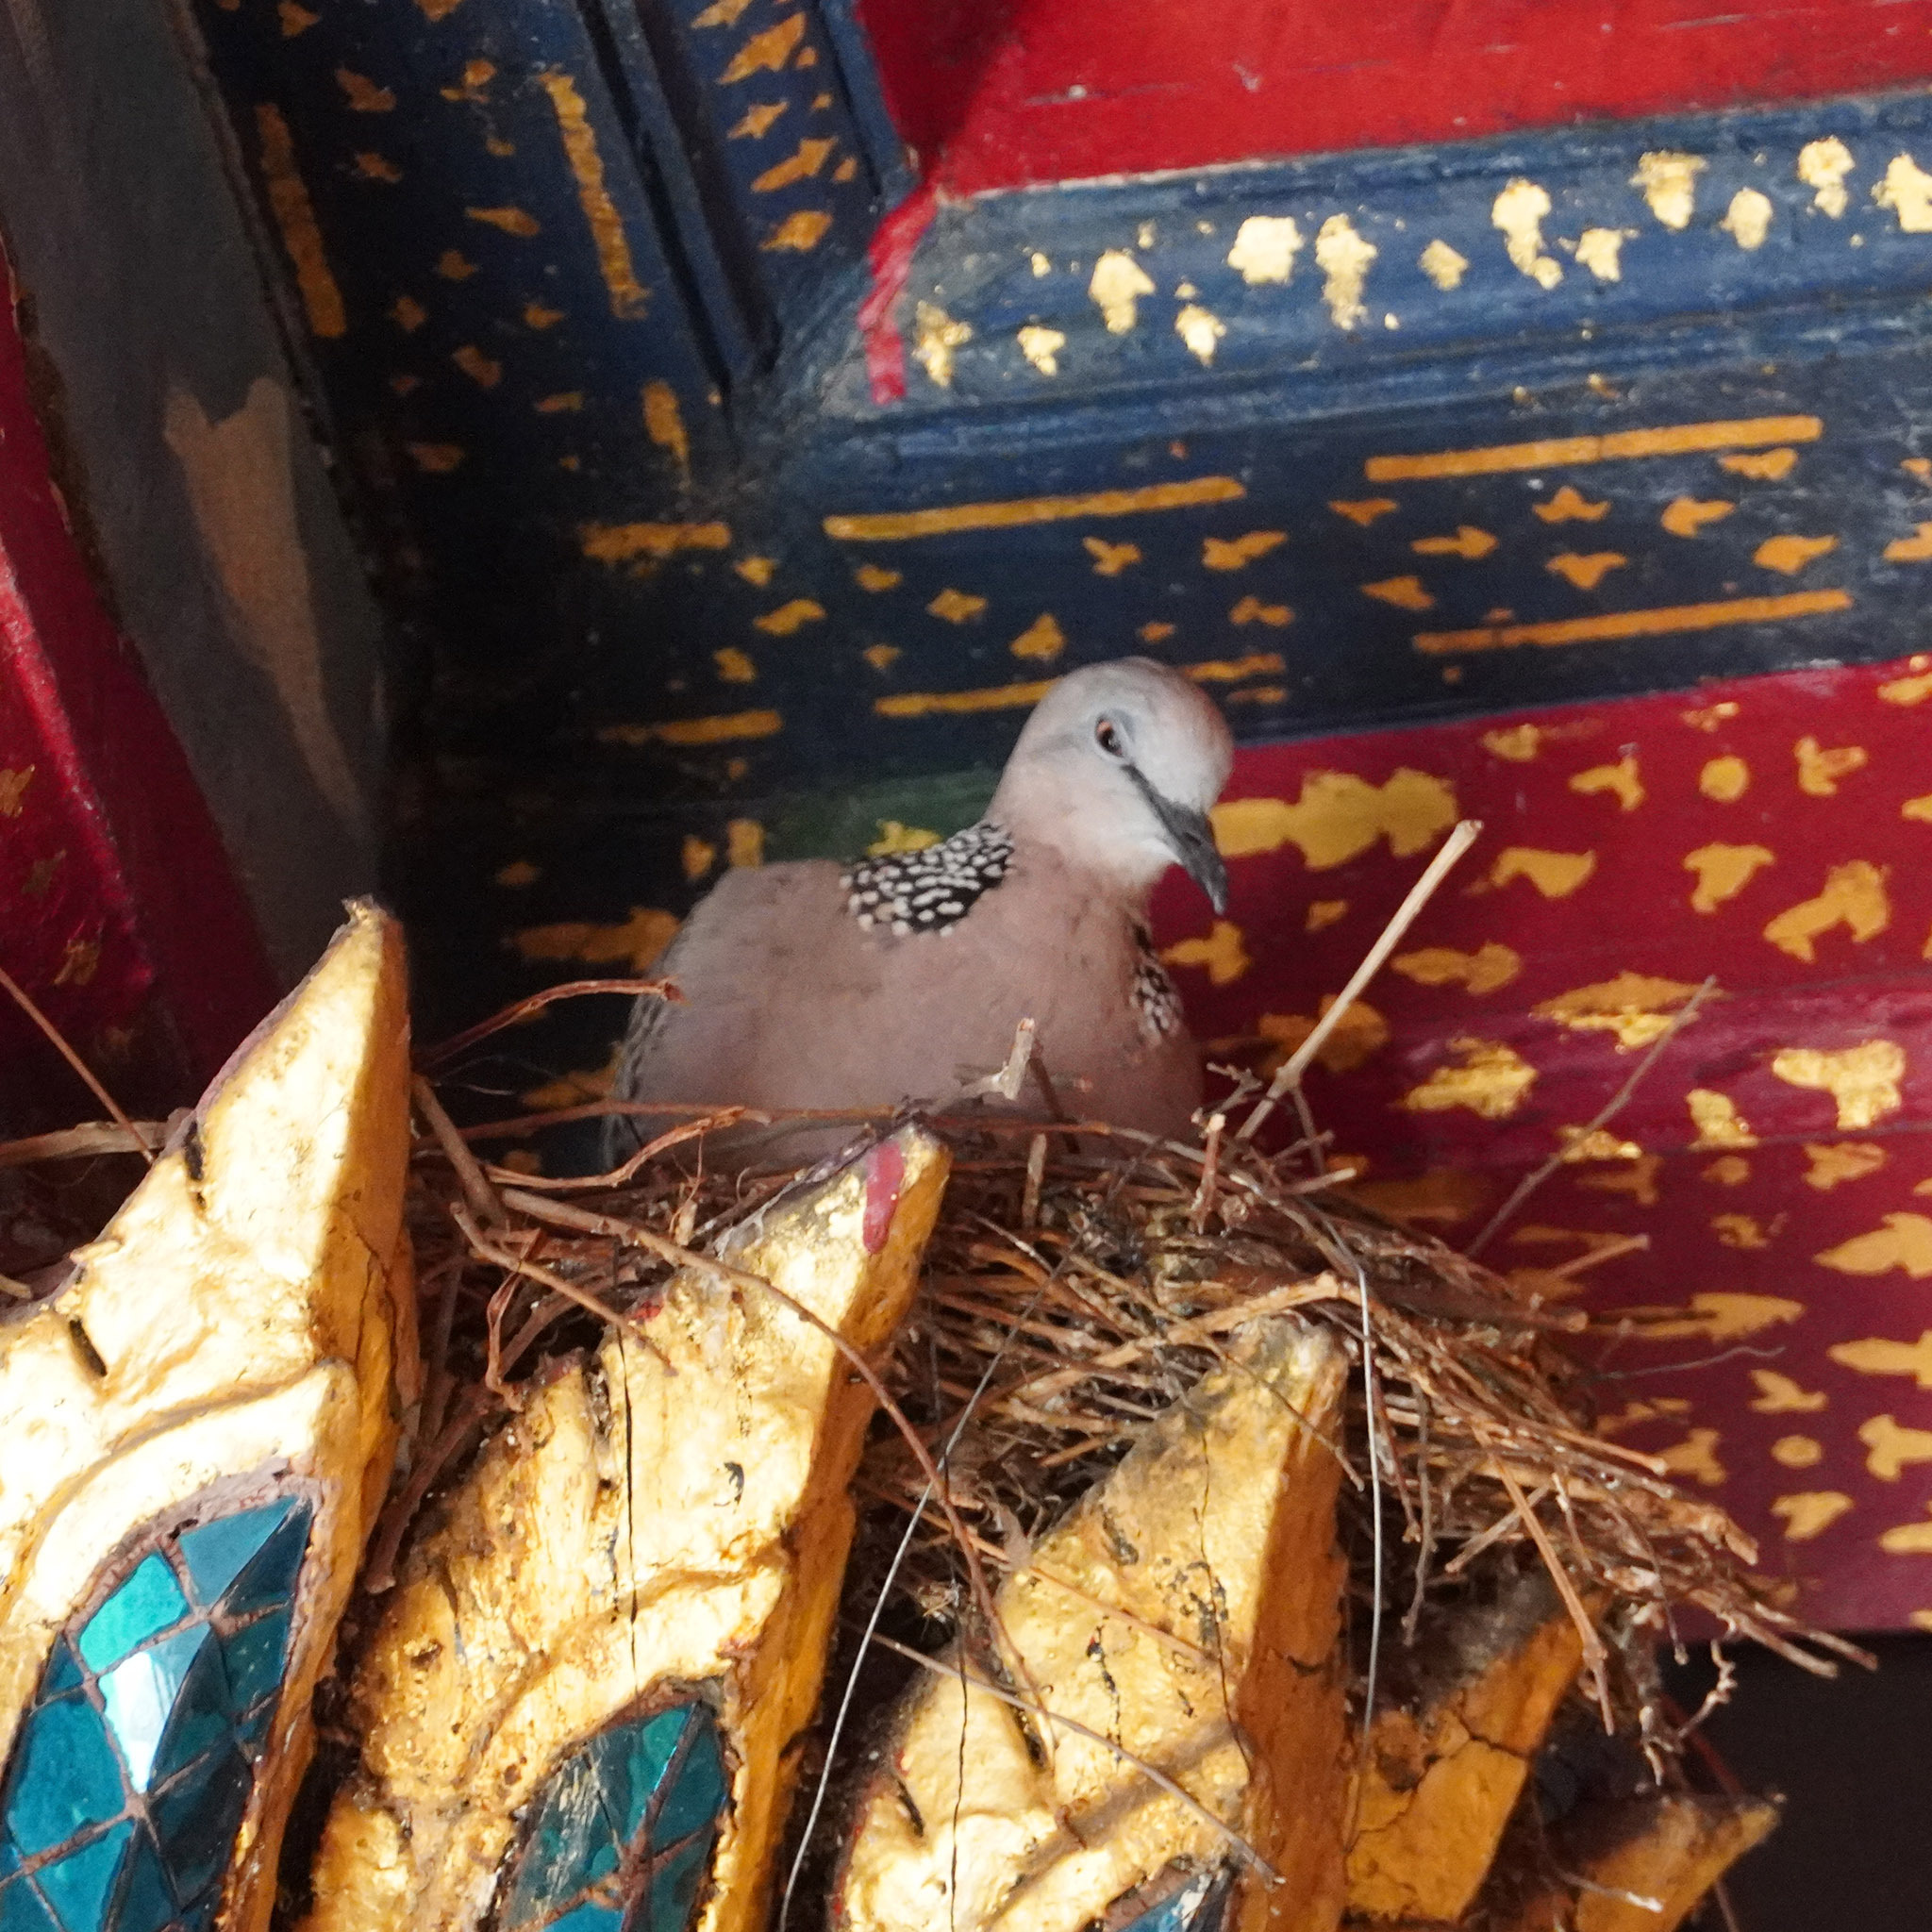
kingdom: Animalia
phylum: Chordata
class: Aves
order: Columbiformes
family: Columbidae
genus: Spilopelia
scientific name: Spilopelia chinensis
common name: Spotted dove
